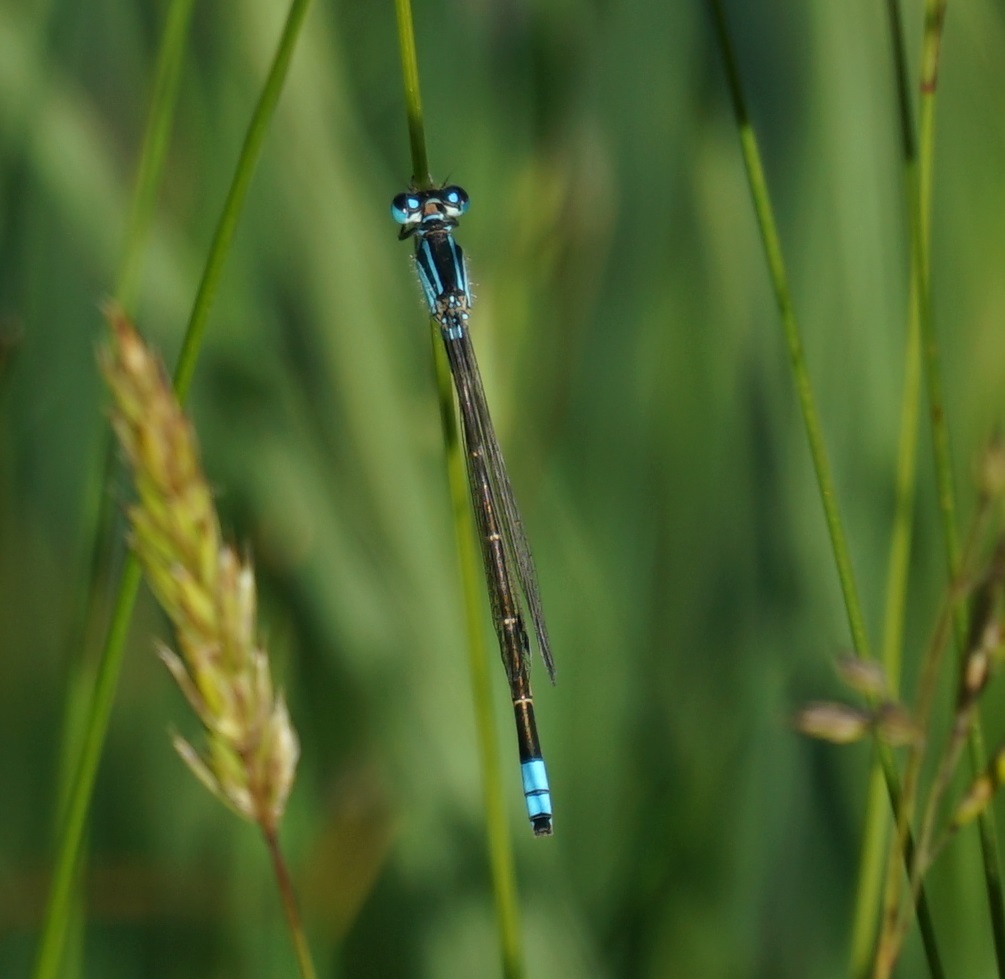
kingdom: Animalia
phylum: Arthropoda
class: Insecta
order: Odonata
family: Coenagrionidae
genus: Ischnura
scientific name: Ischnura heterosticta
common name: Common bluetail
